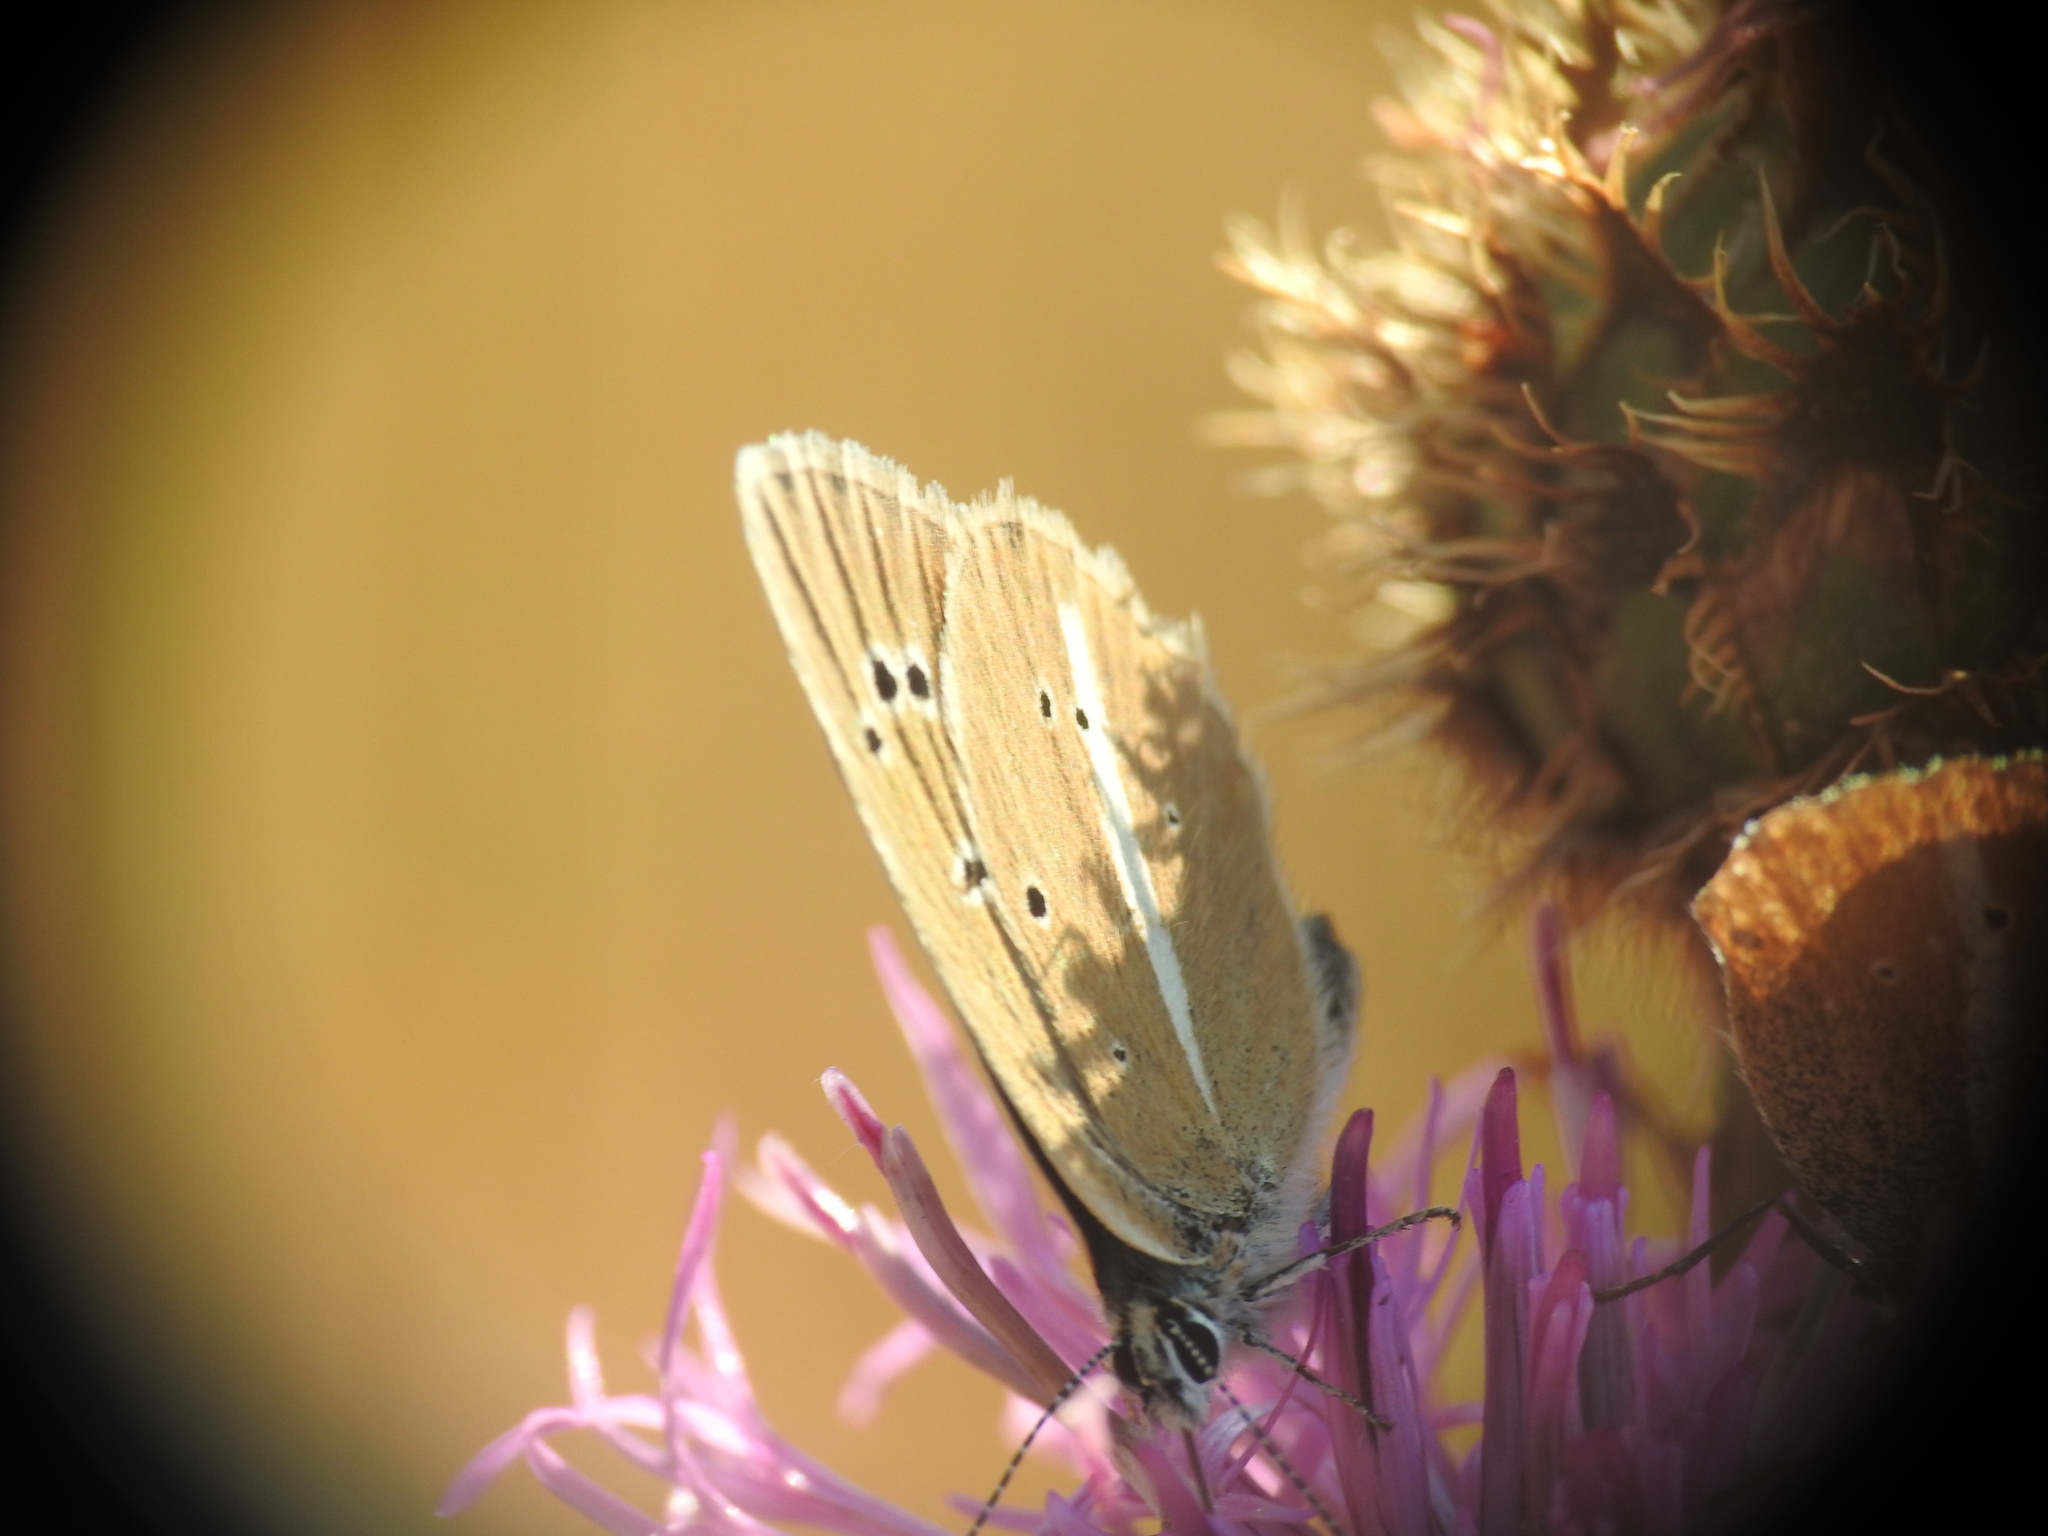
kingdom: Animalia
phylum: Arthropoda
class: Insecta
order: Lepidoptera
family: Lycaenidae
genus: Agrodiaetus
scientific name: Agrodiaetus damon
